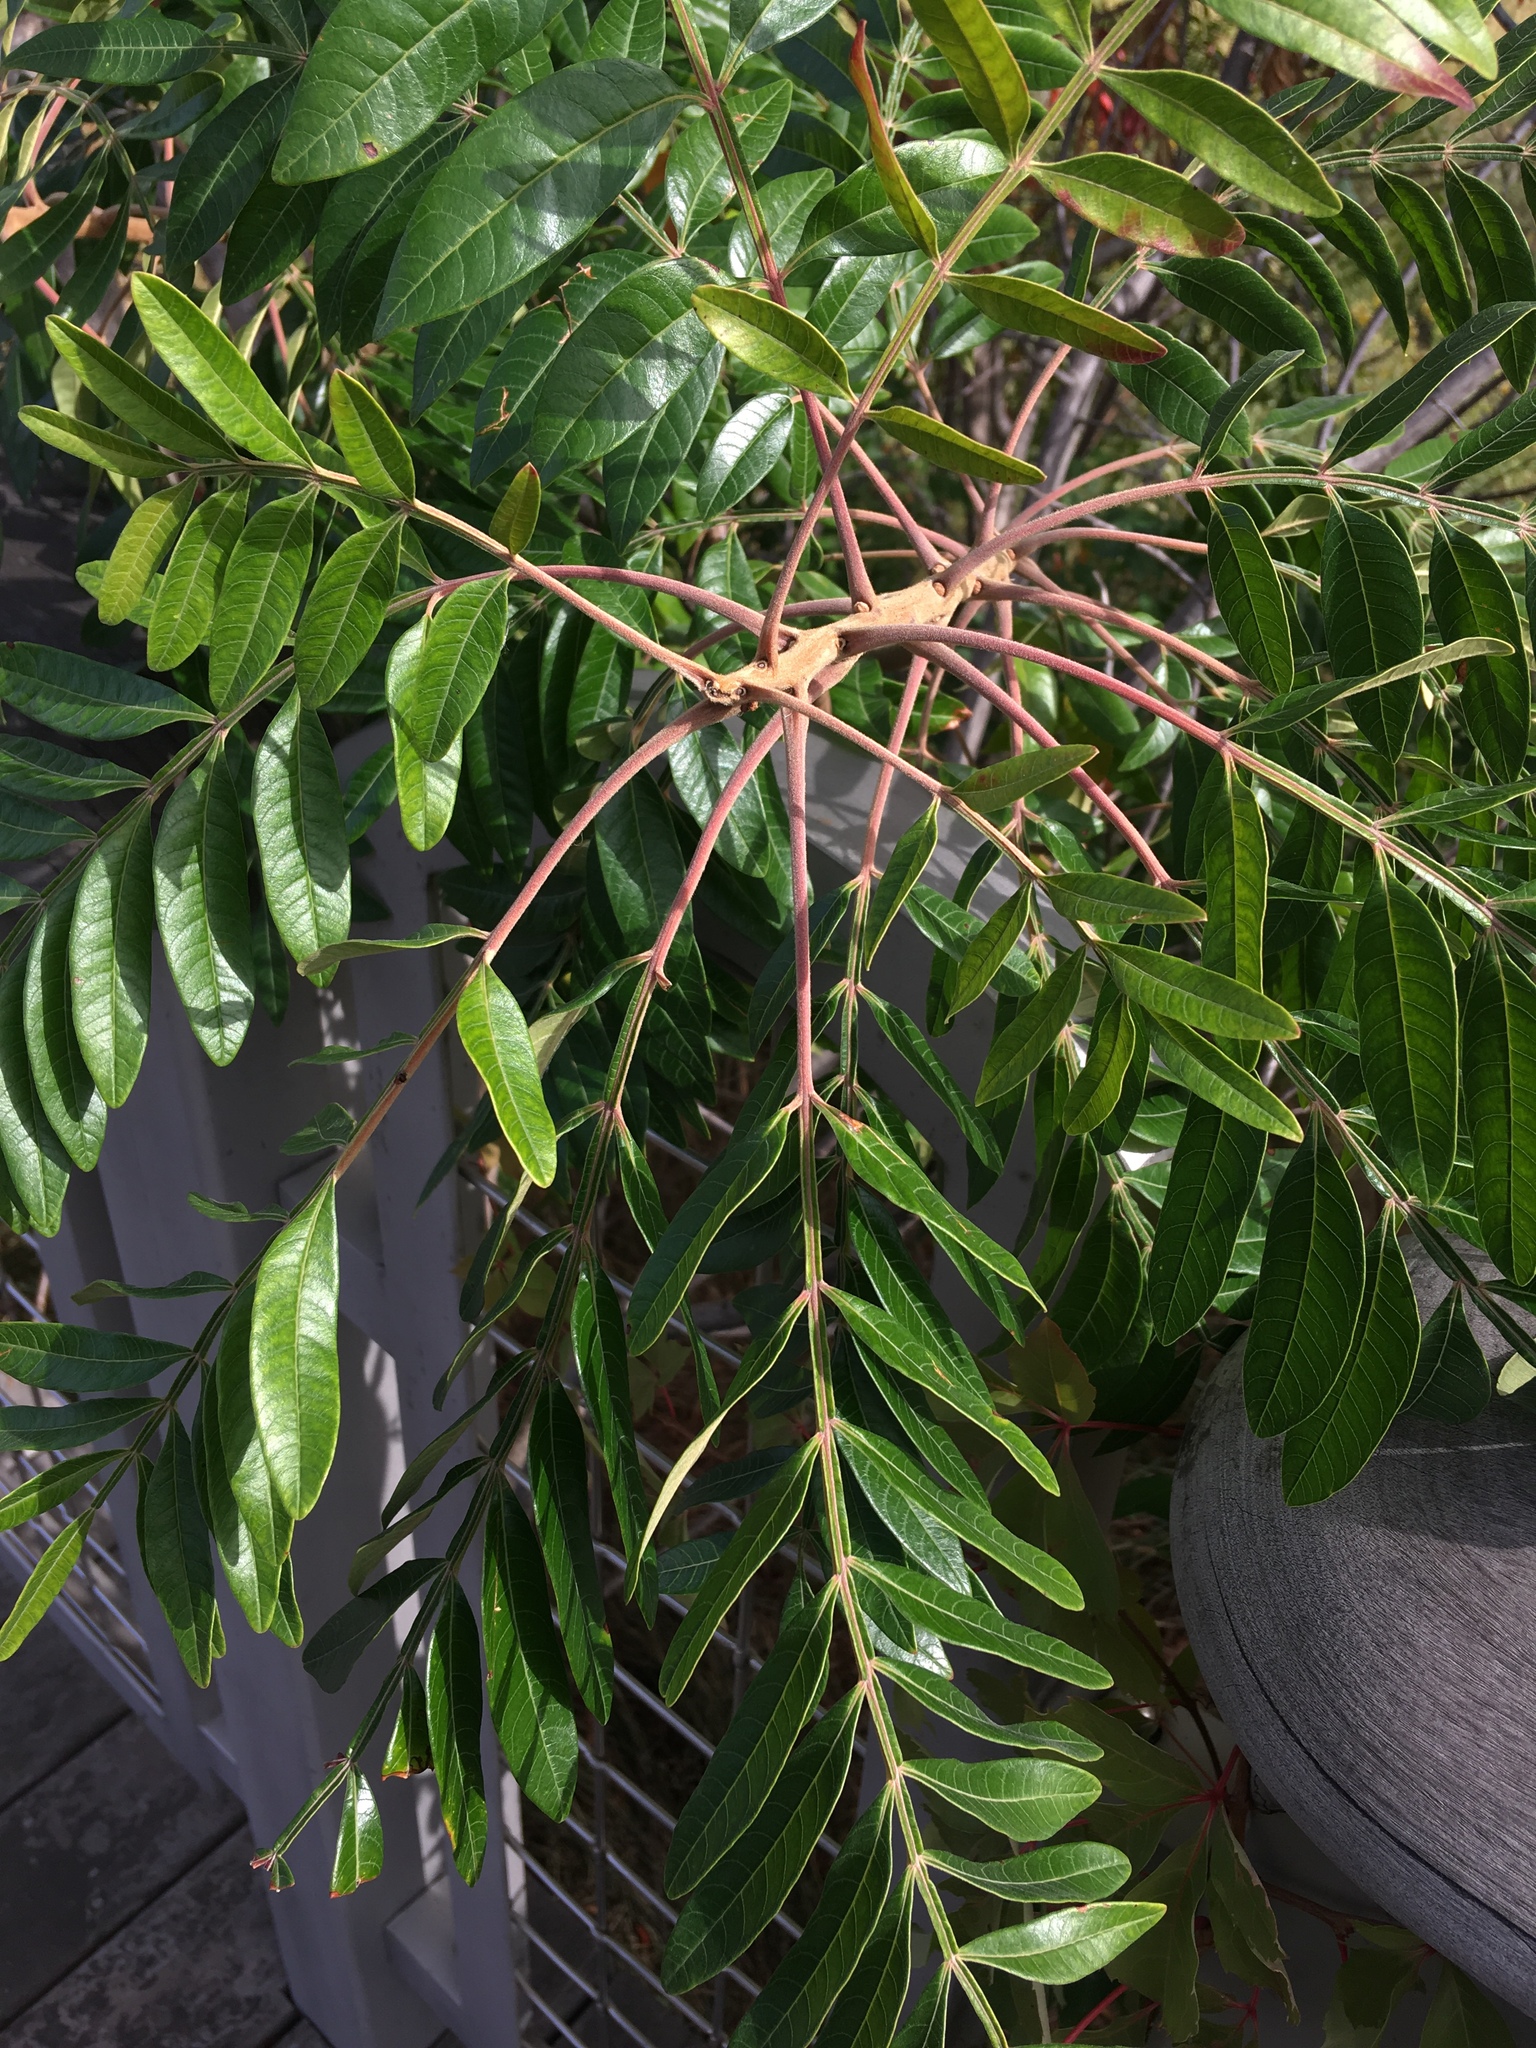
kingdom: Plantae
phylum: Tracheophyta
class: Magnoliopsida
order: Sapindales
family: Anacardiaceae
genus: Rhus
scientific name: Rhus copallina
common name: Shining sumac
